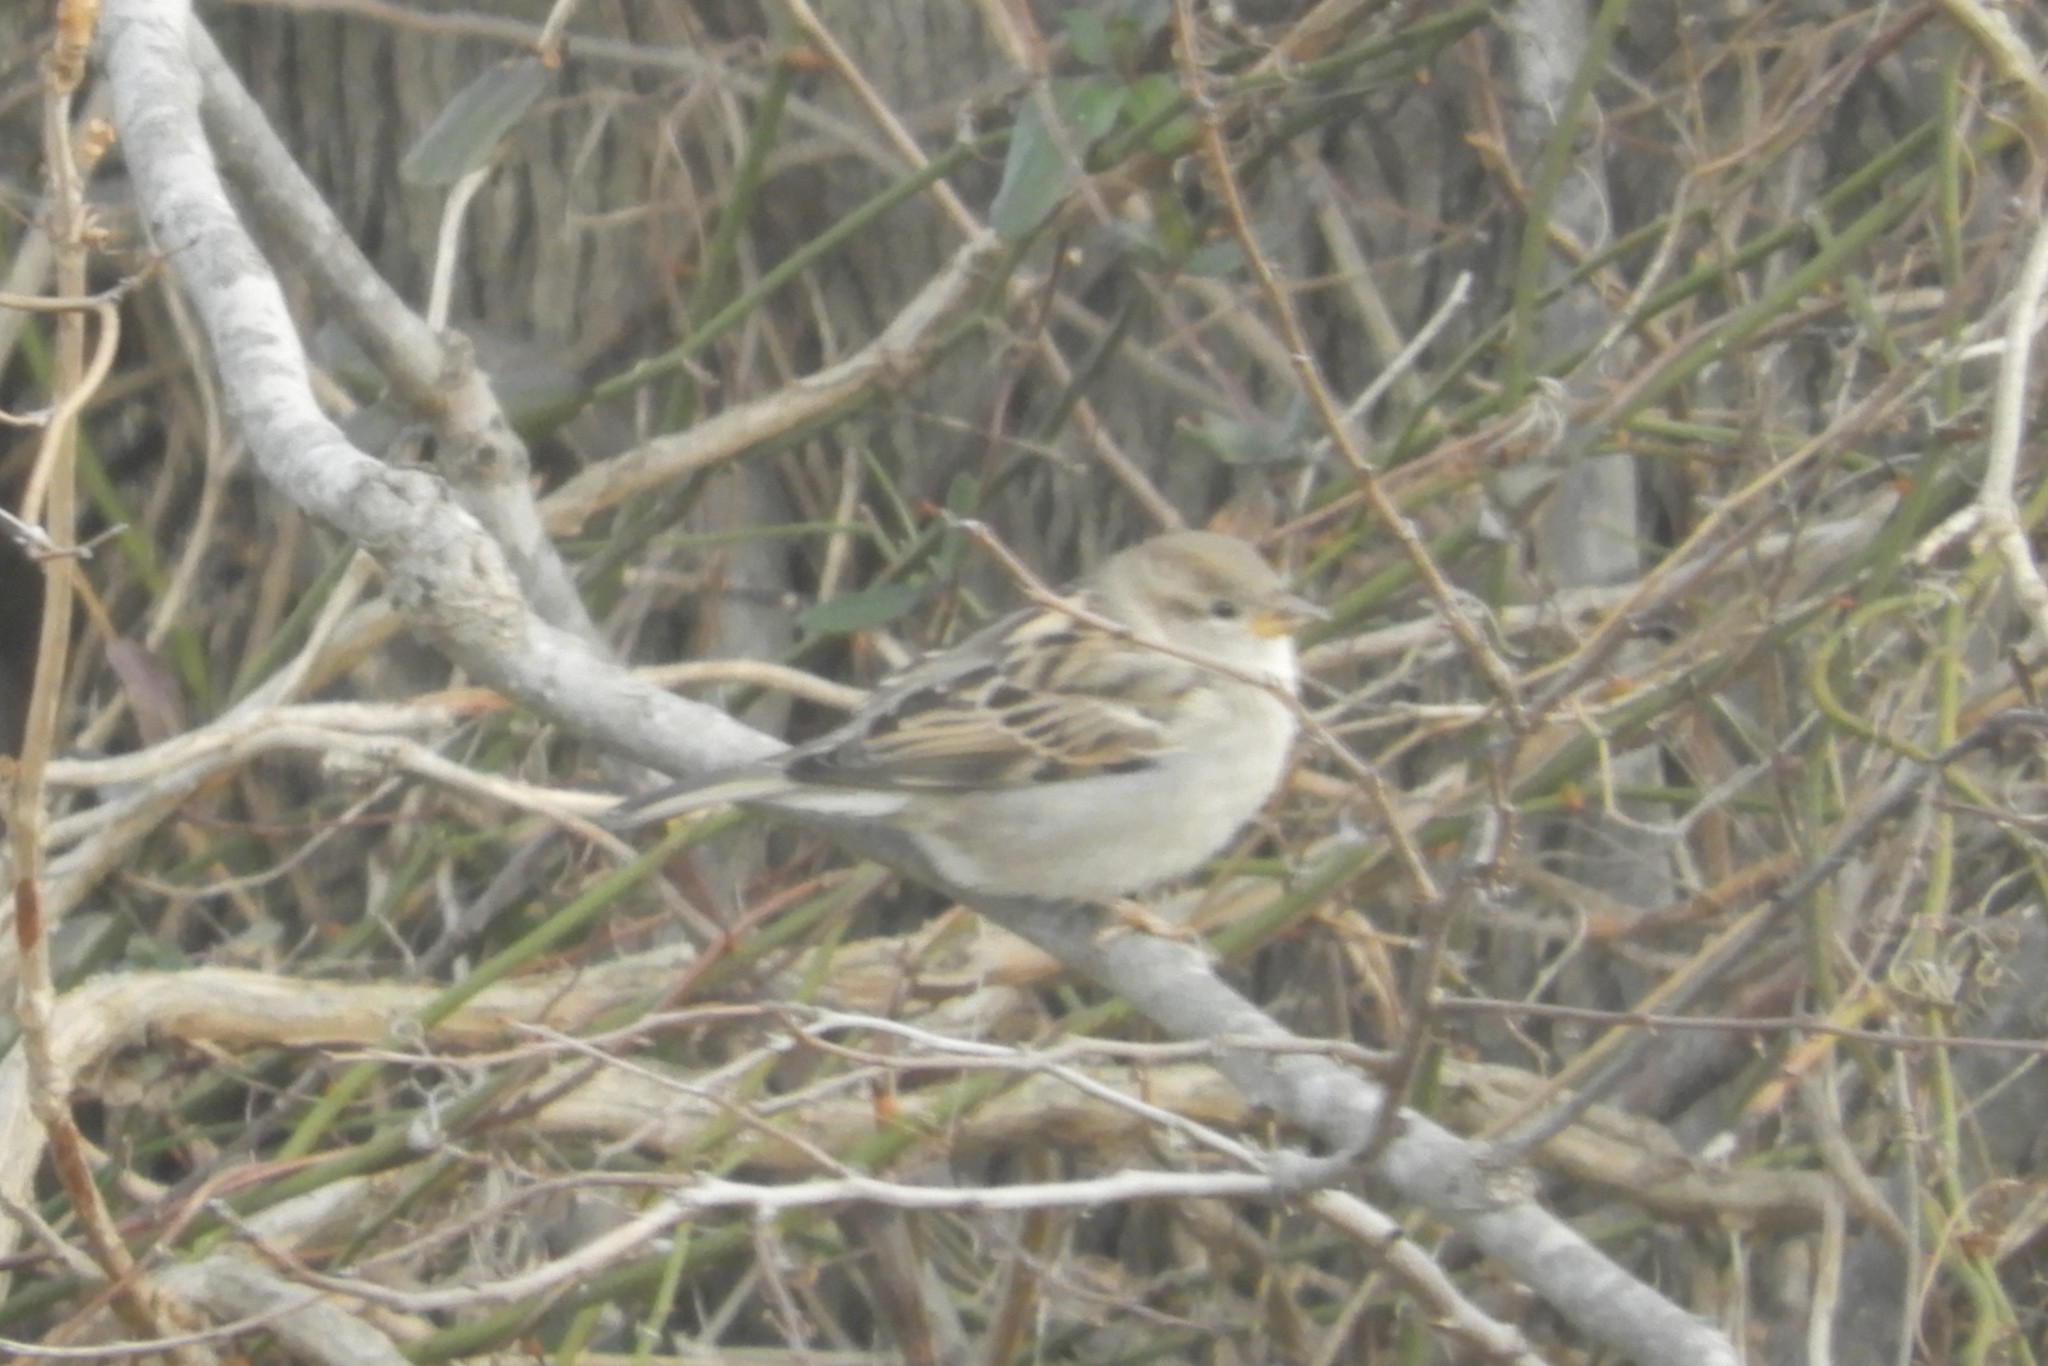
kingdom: Animalia
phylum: Chordata
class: Aves
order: Passeriformes
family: Passeridae
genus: Passer
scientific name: Passer domesticus
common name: House sparrow
